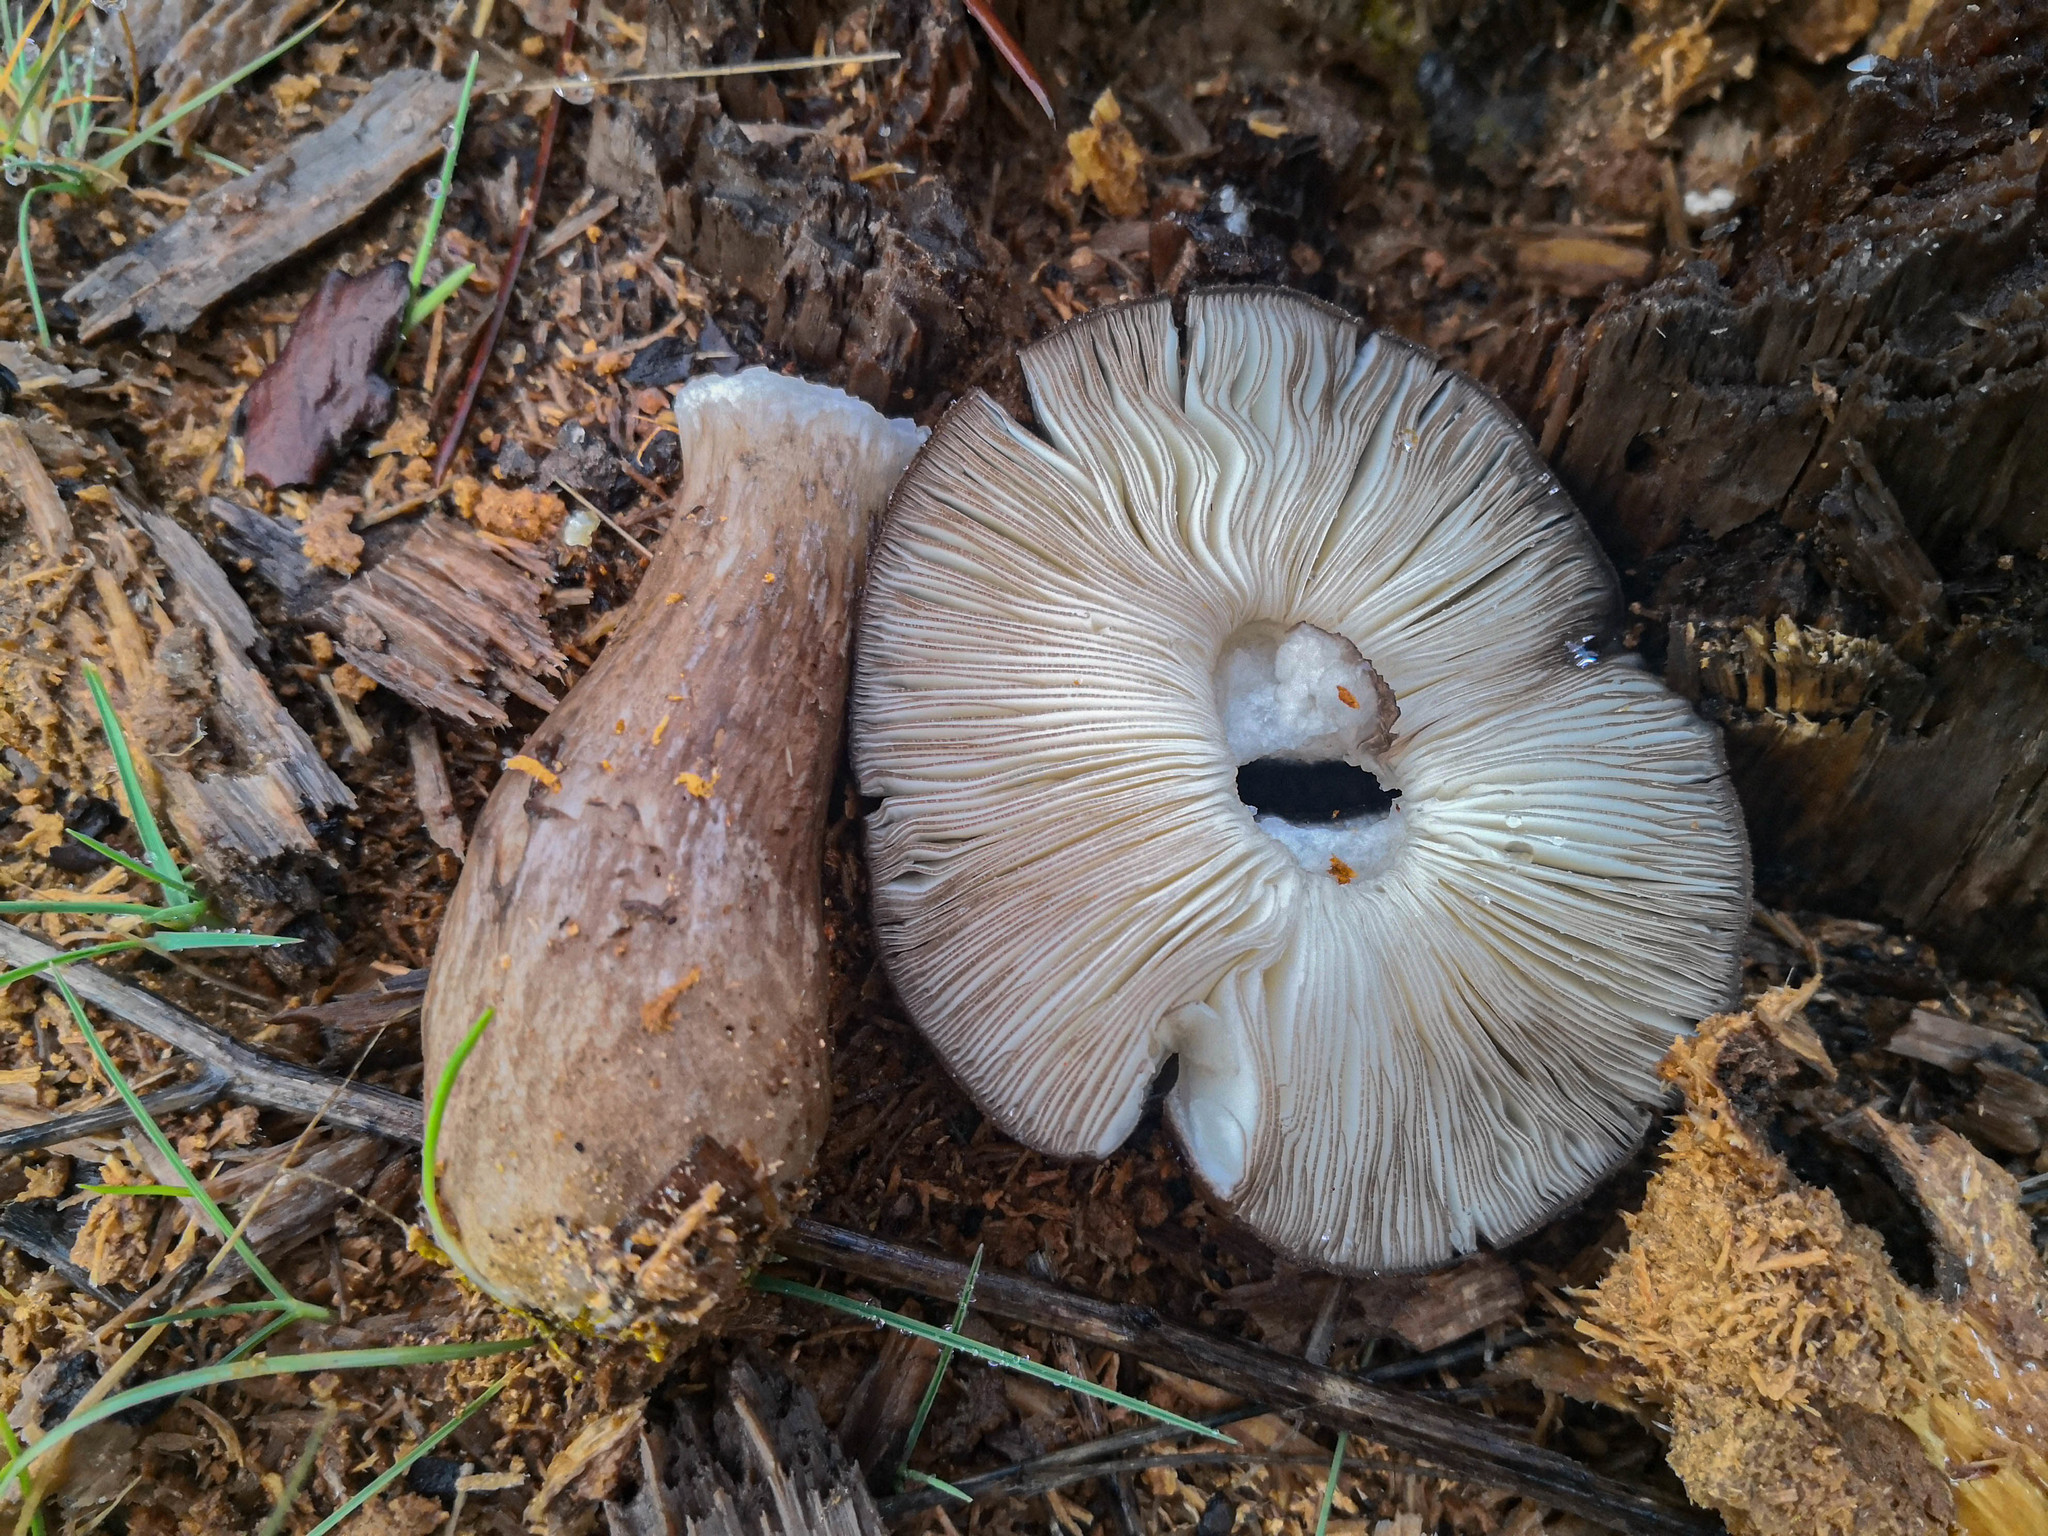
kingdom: Fungi
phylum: Basidiomycota
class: Agaricomycetes
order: Agaricales
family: Pluteaceae
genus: Pluteus
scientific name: Pluteus atromarginatus
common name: Blackedged shield
